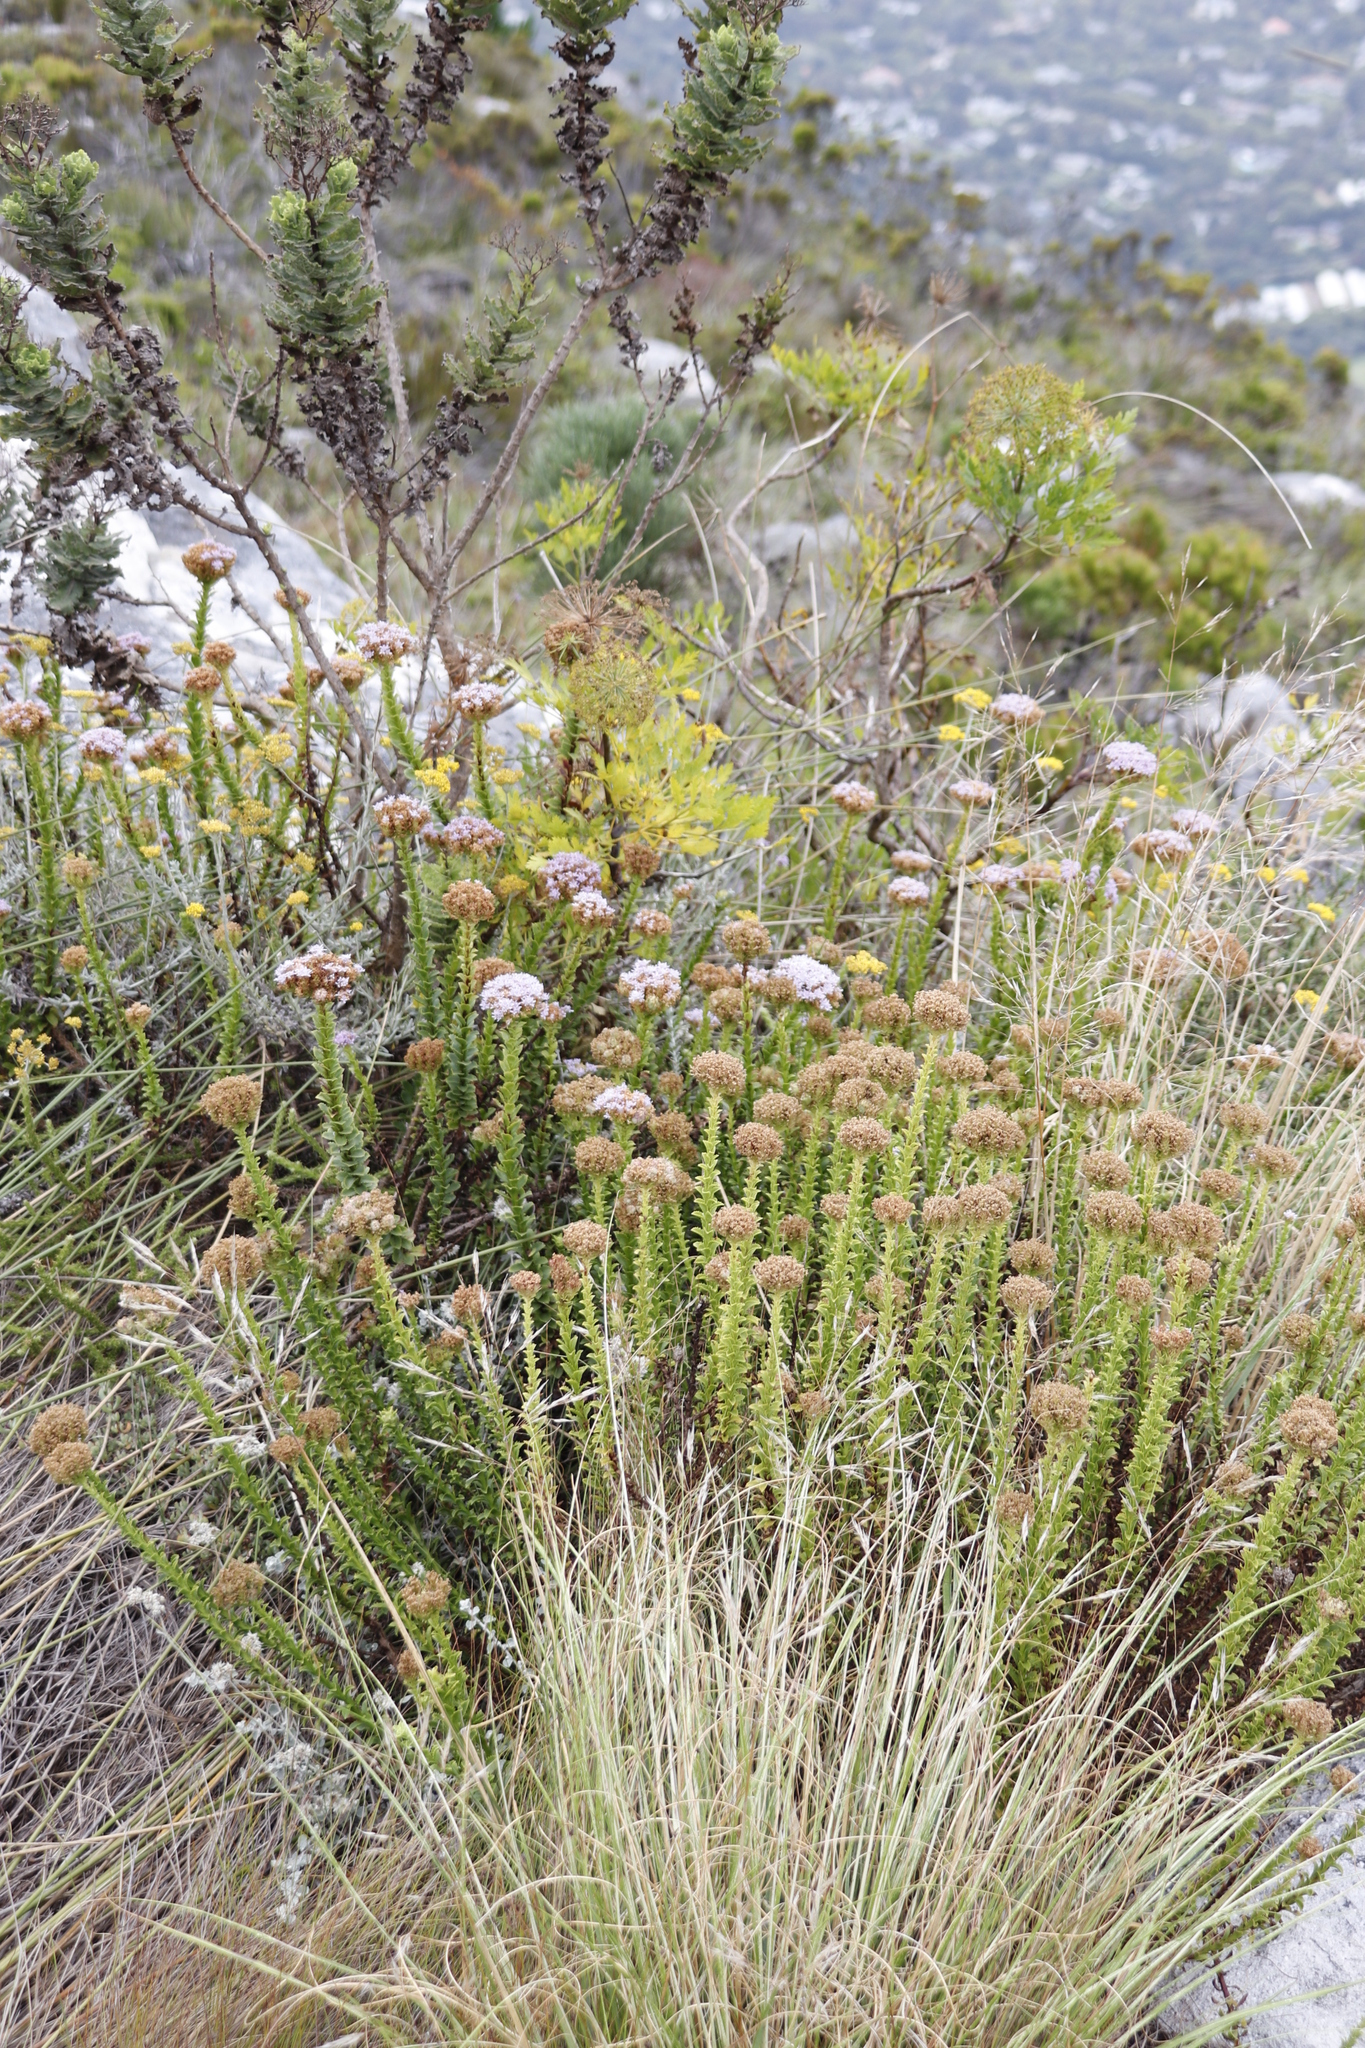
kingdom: Plantae
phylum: Tracheophyta
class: Magnoliopsida
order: Lamiales
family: Scrophulariaceae
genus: Pseudoselago
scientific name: Pseudoselago serrata
